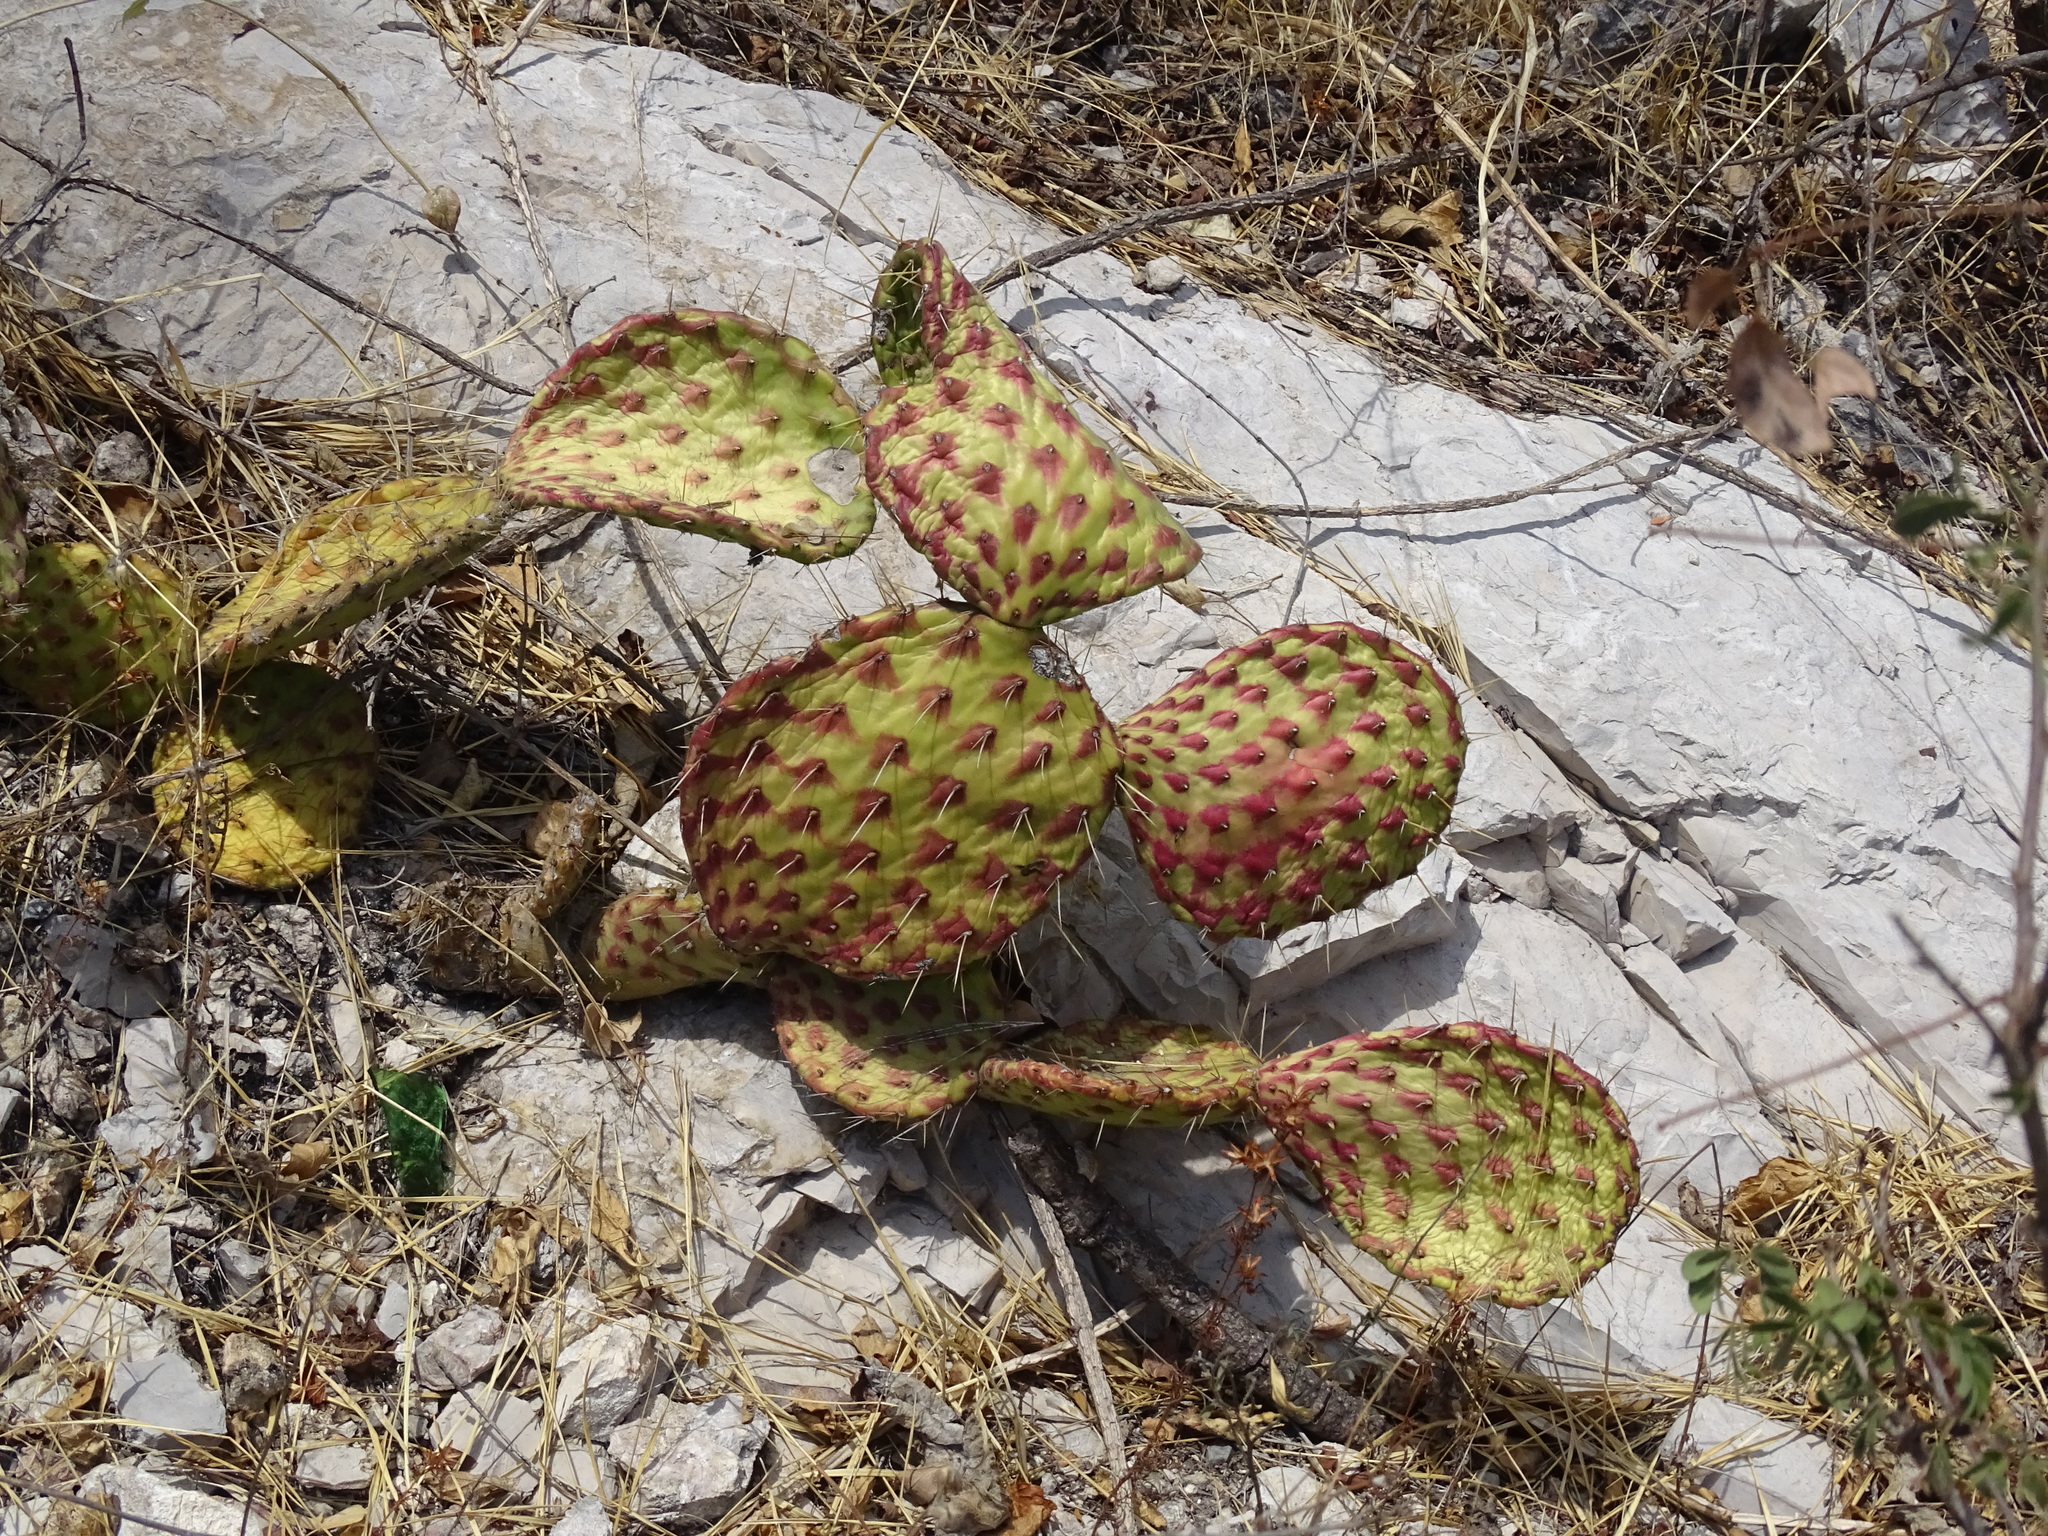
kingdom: Plantae
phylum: Tracheophyta
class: Magnoliopsida
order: Caryophyllales
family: Cactaceae
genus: Opuntia
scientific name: Opuntia depressa
